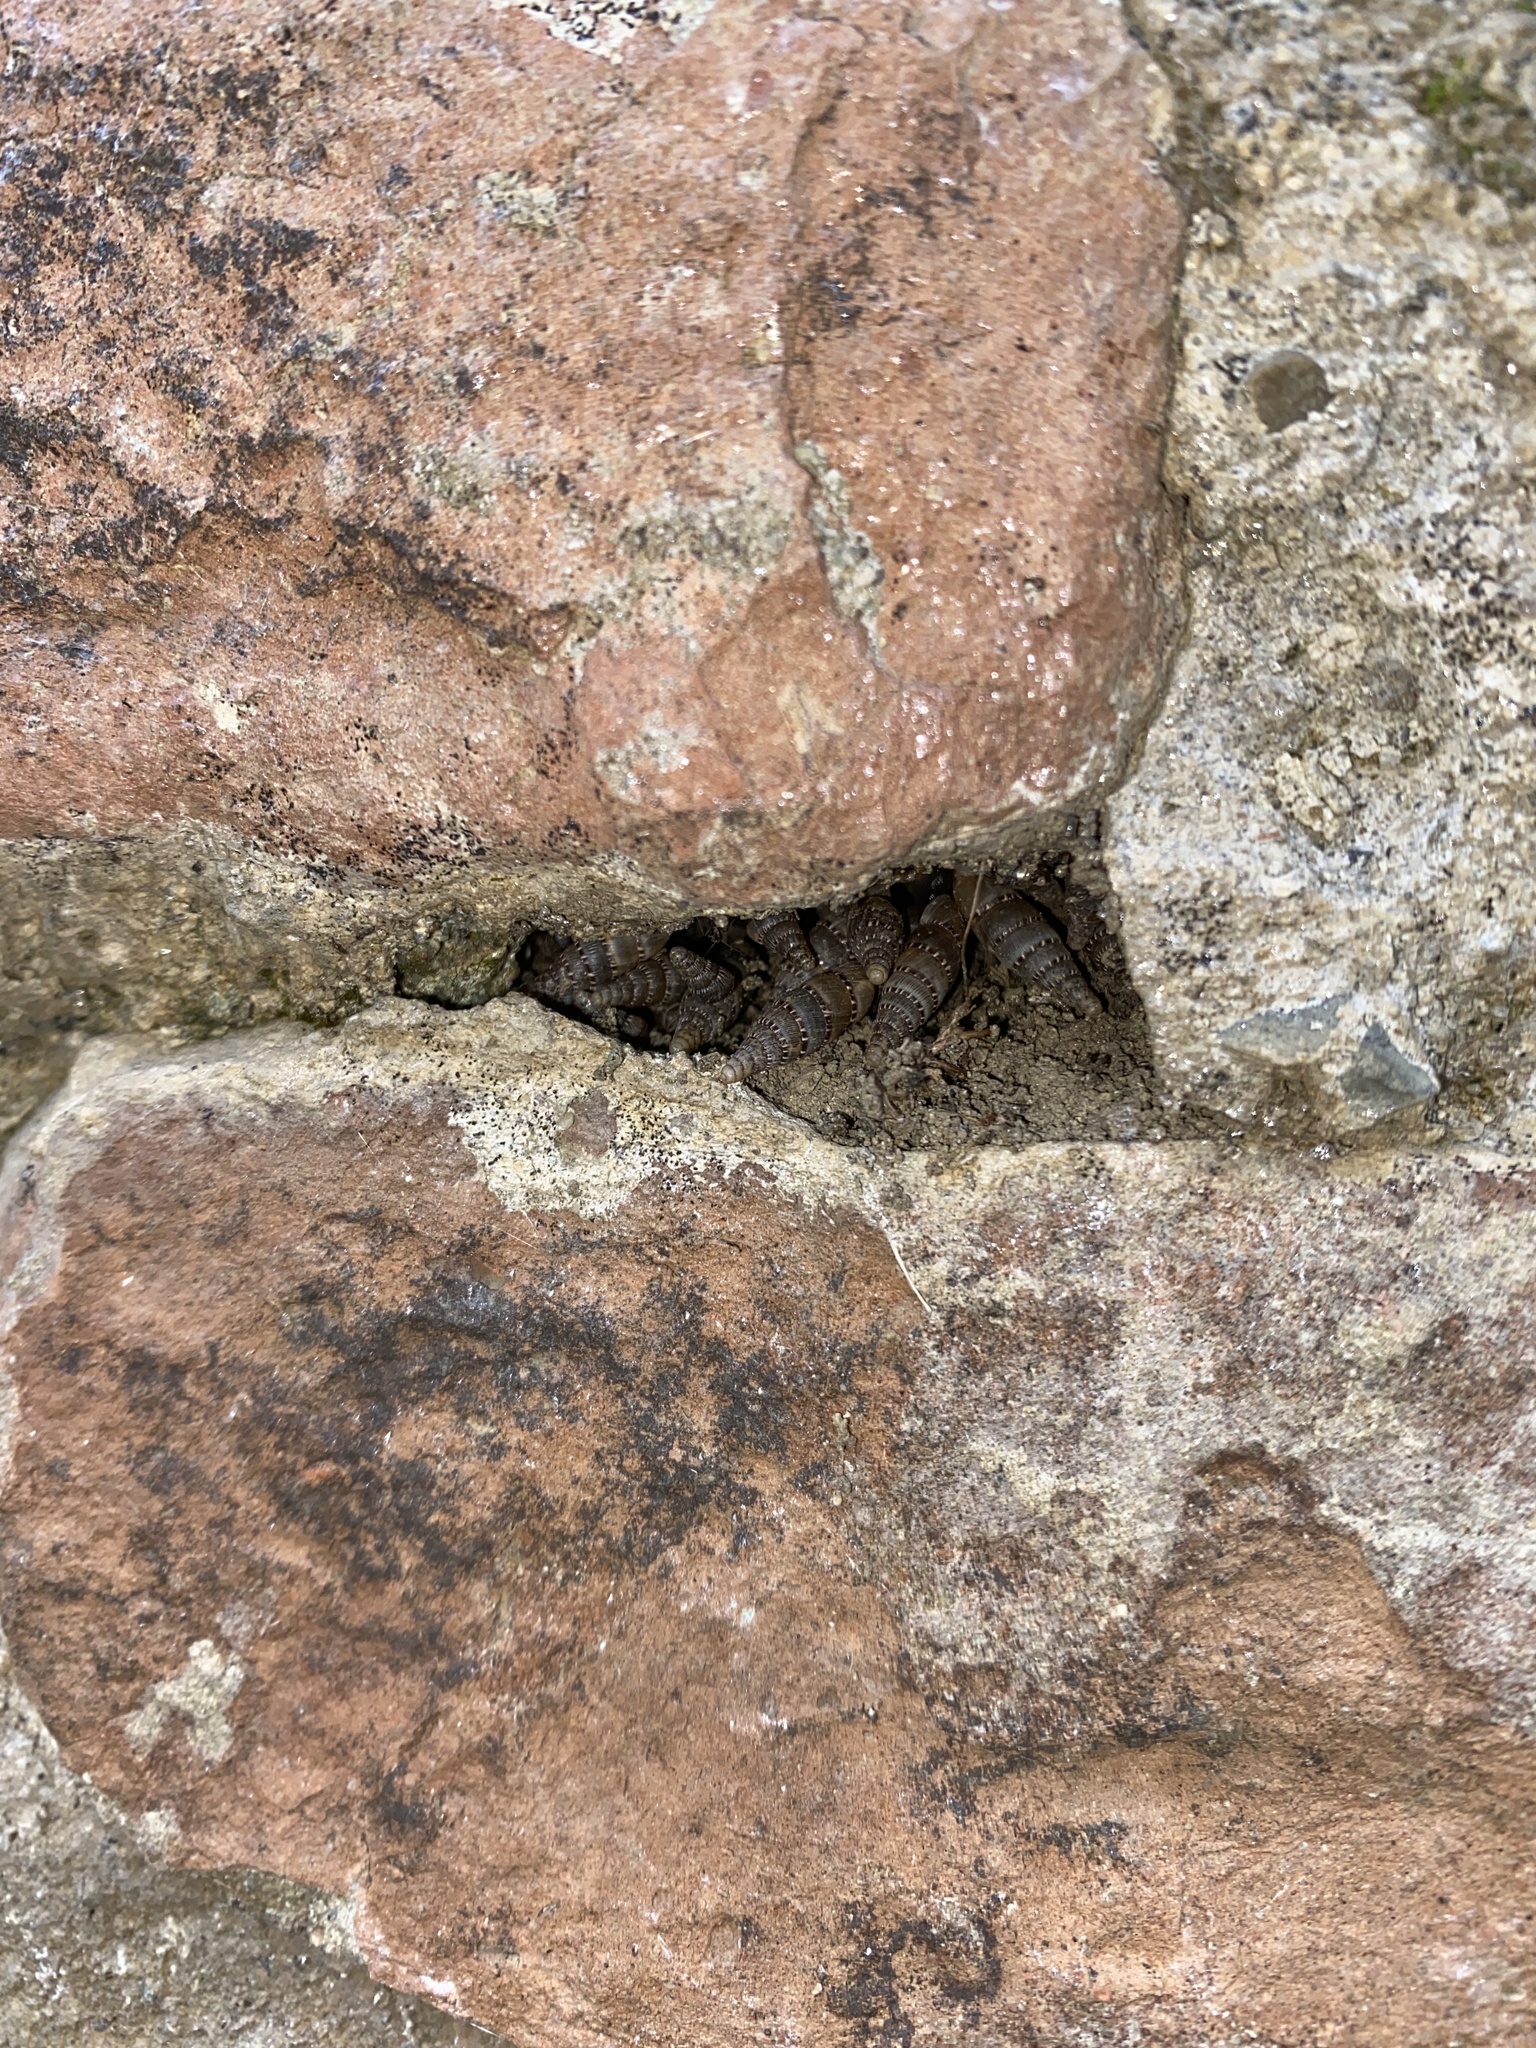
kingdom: Animalia
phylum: Mollusca
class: Gastropoda
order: Stylommatophora
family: Clausiliidae
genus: Papillifera
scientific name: Papillifera papillaris
